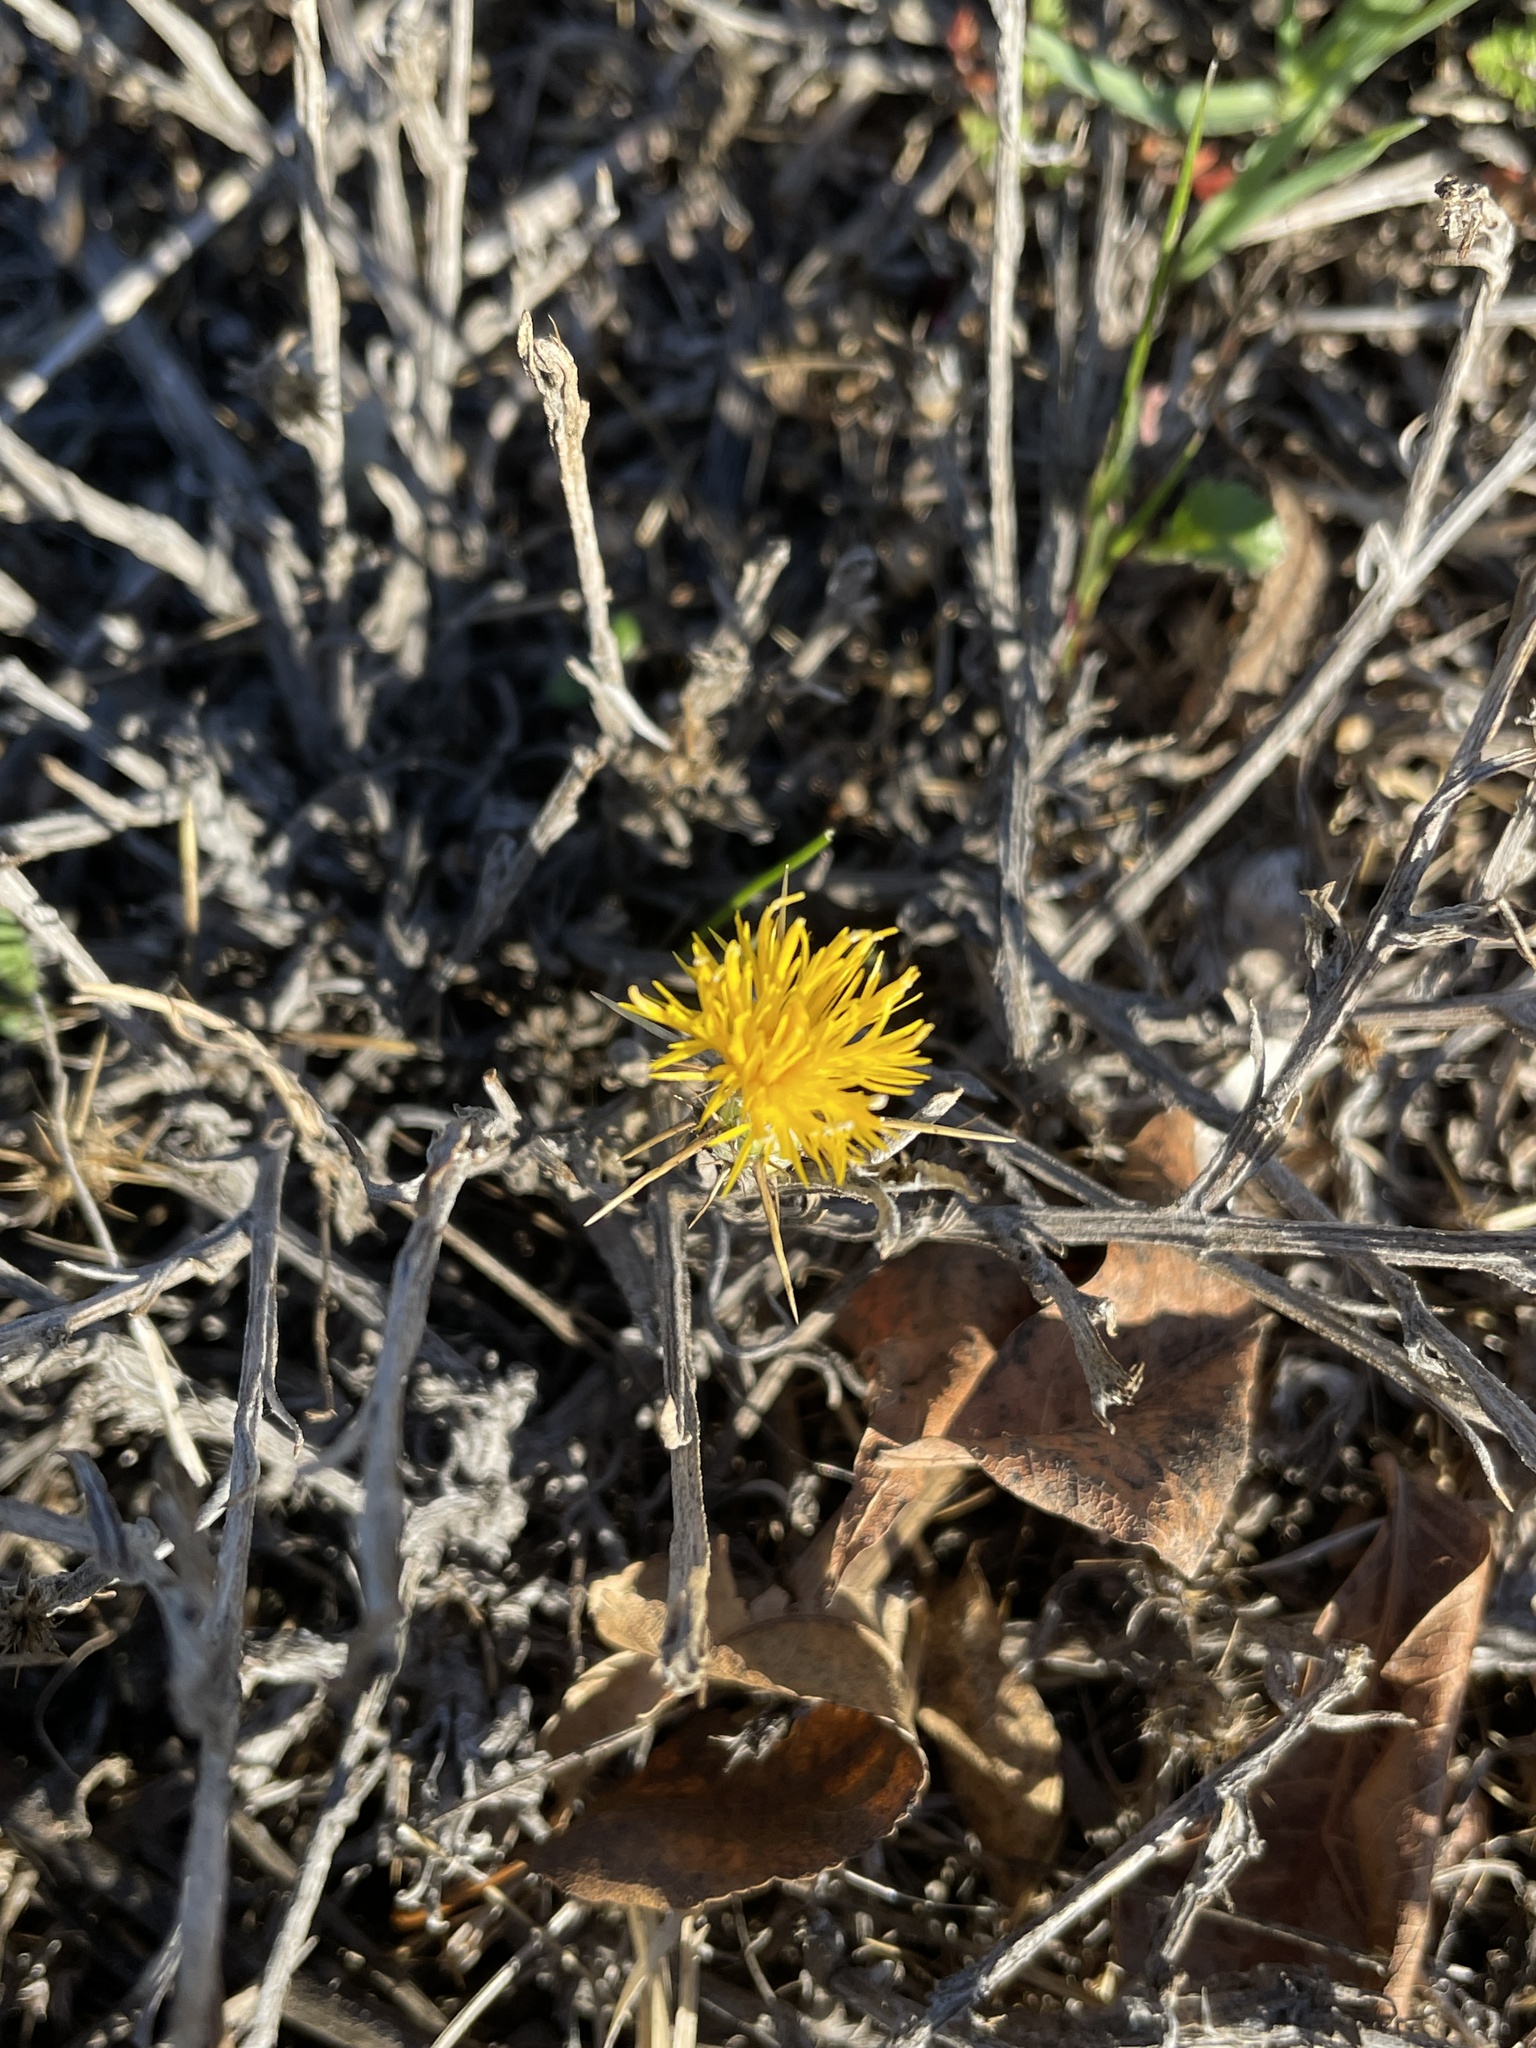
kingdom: Plantae
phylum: Tracheophyta
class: Magnoliopsida
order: Asterales
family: Asteraceae
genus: Centaurea
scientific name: Centaurea solstitialis
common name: Yellow star-thistle
